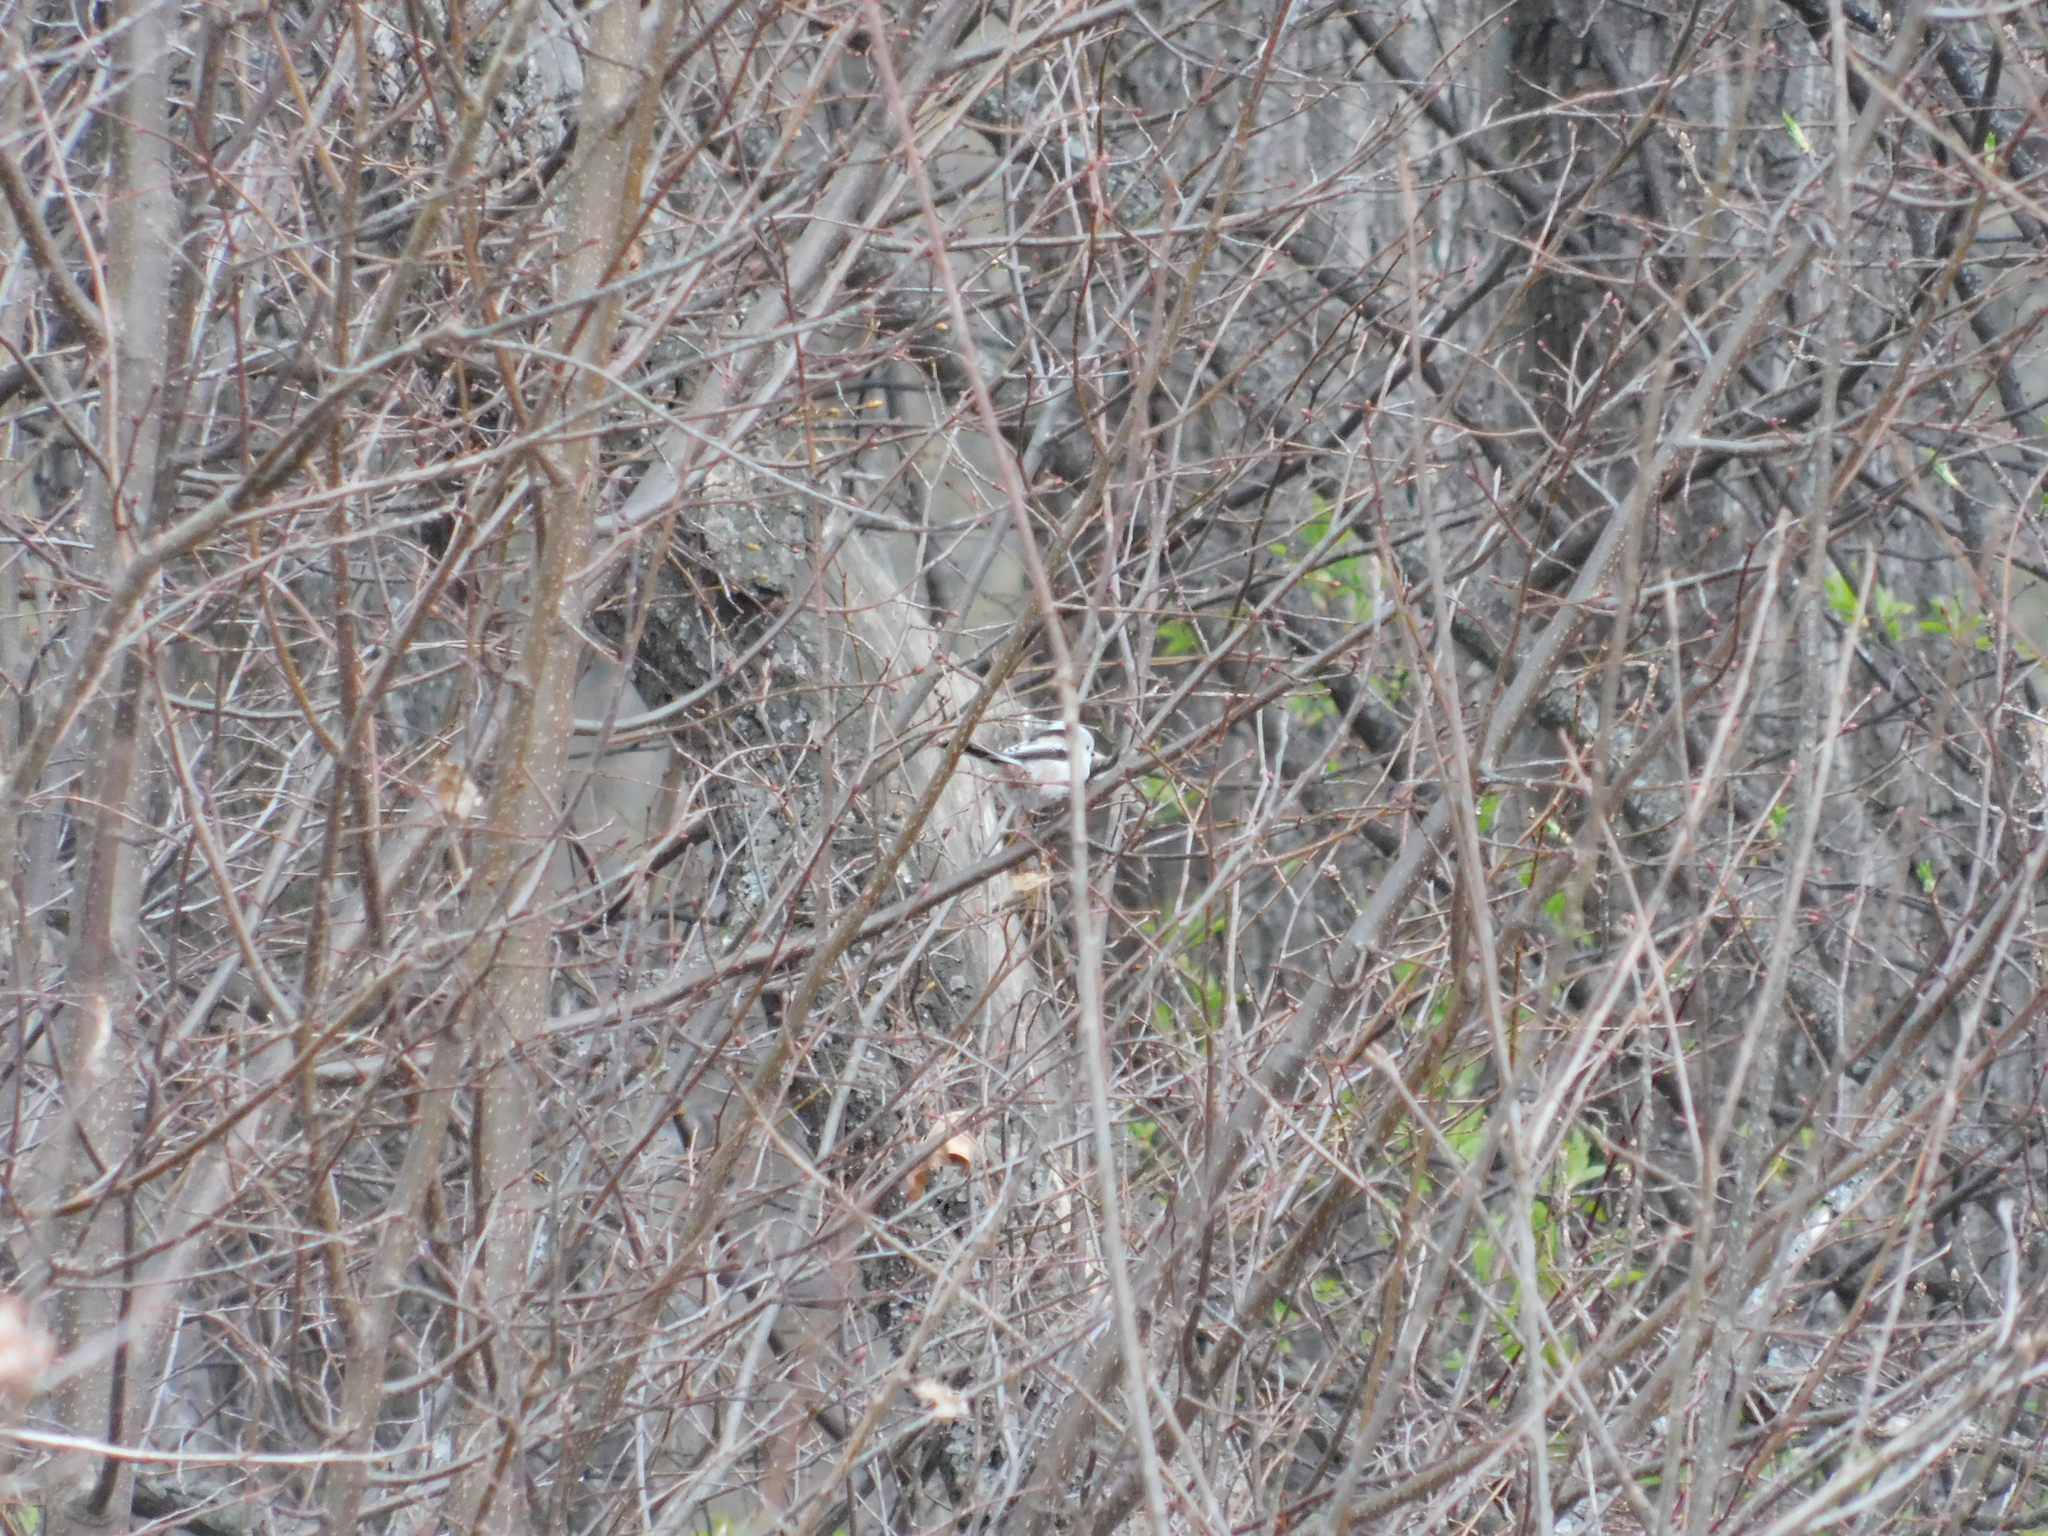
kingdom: Animalia
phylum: Chordata
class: Aves
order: Passeriformes
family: Aegithalidae
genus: Aegithalos
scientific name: Aegithalos caudatus
